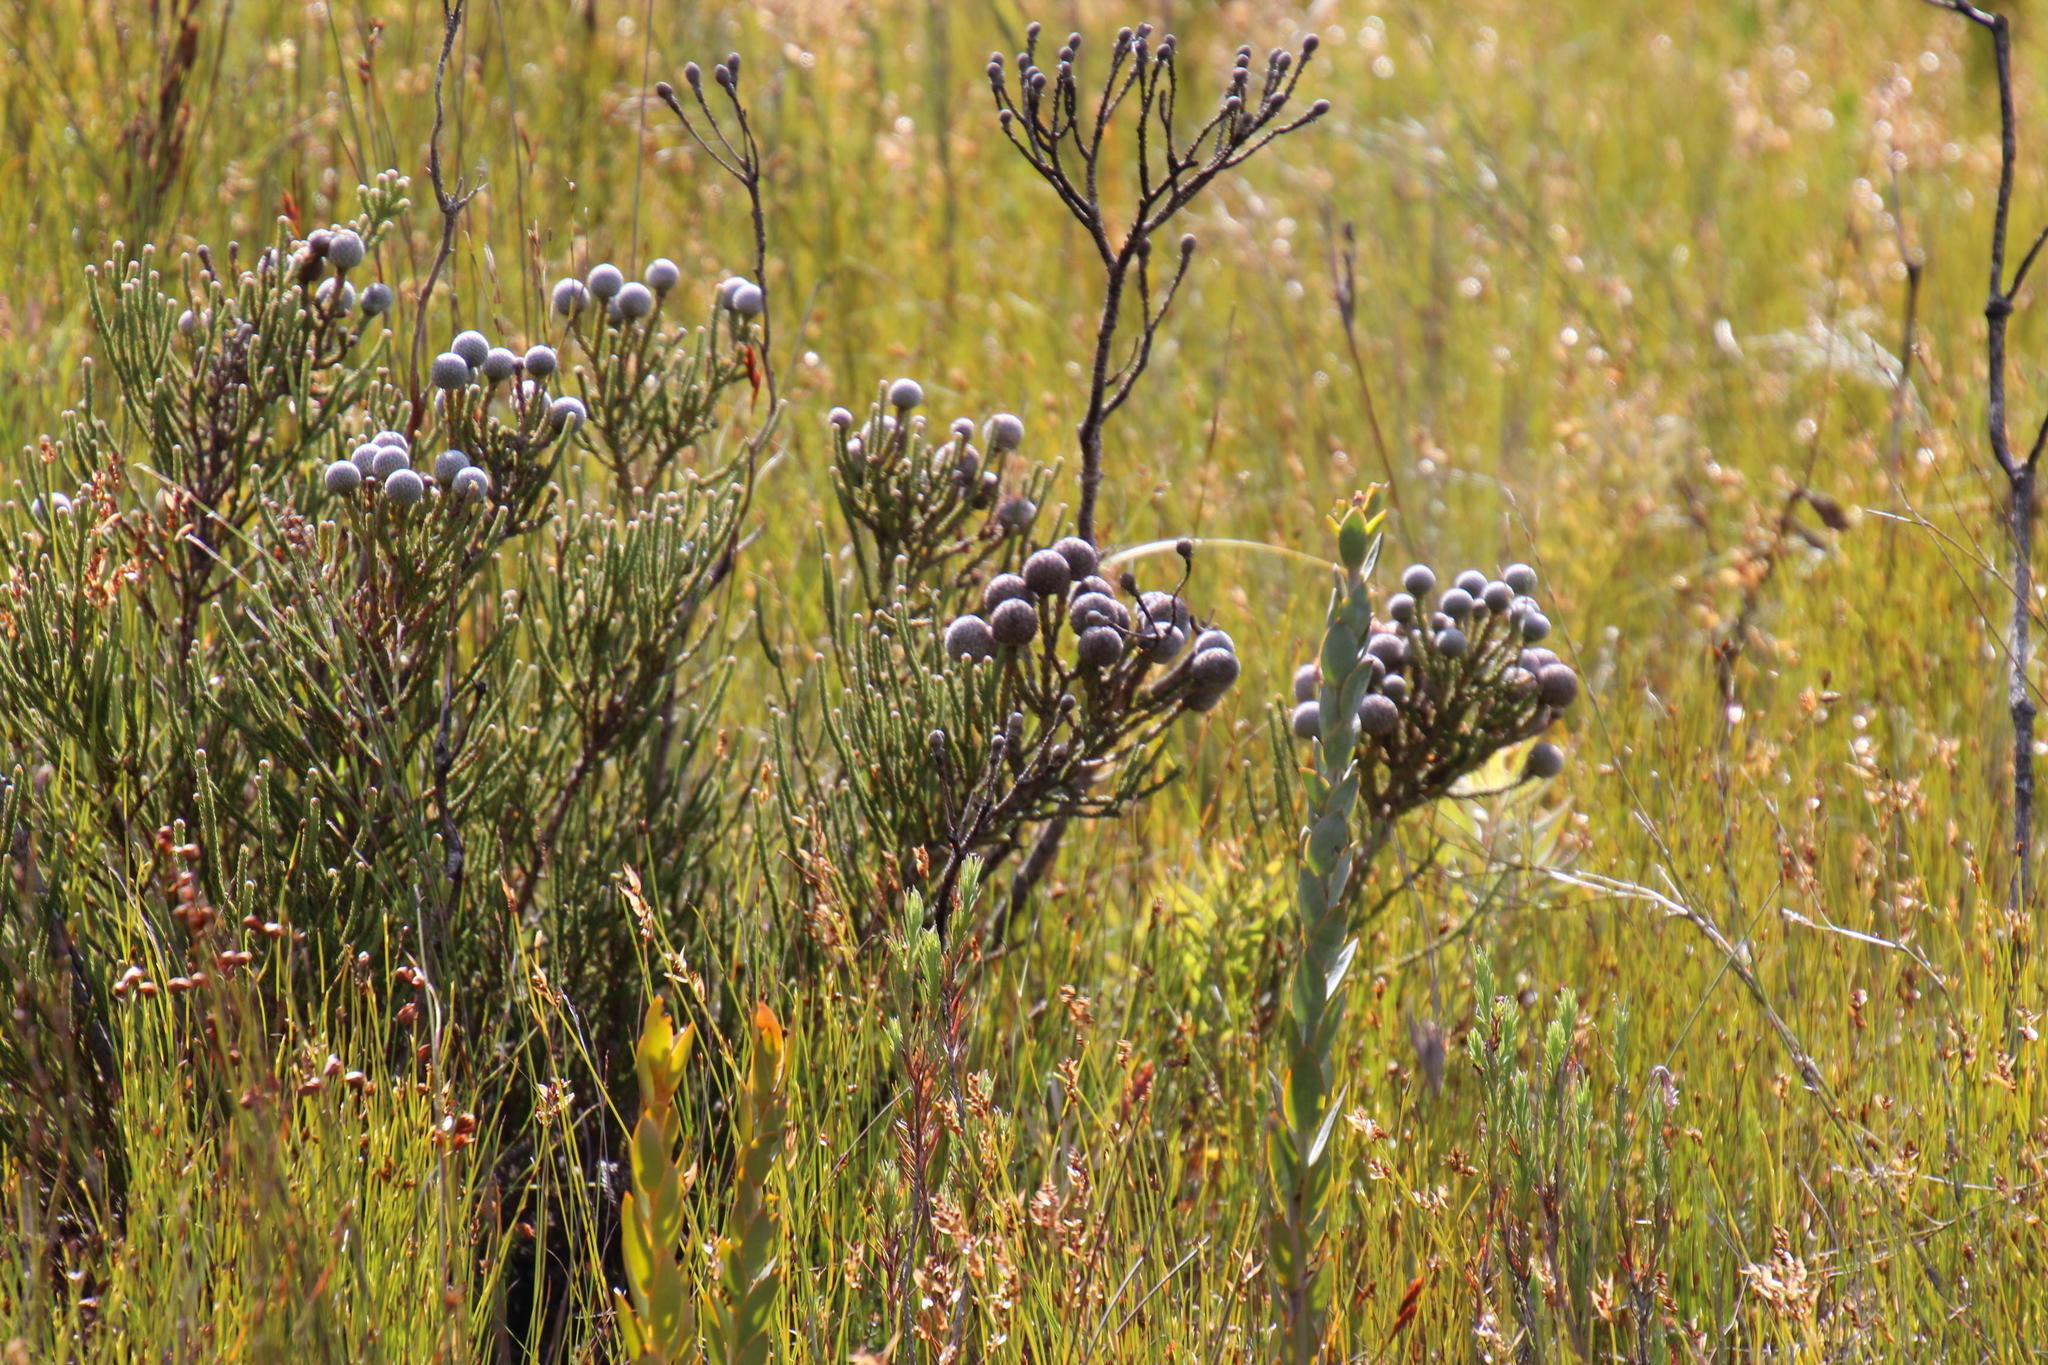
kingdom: Plantae
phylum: Tracheophyta
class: Magnoliopsida
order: Bruniales
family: Bruniaceae
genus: Brunia
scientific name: Brunia noduliflora
